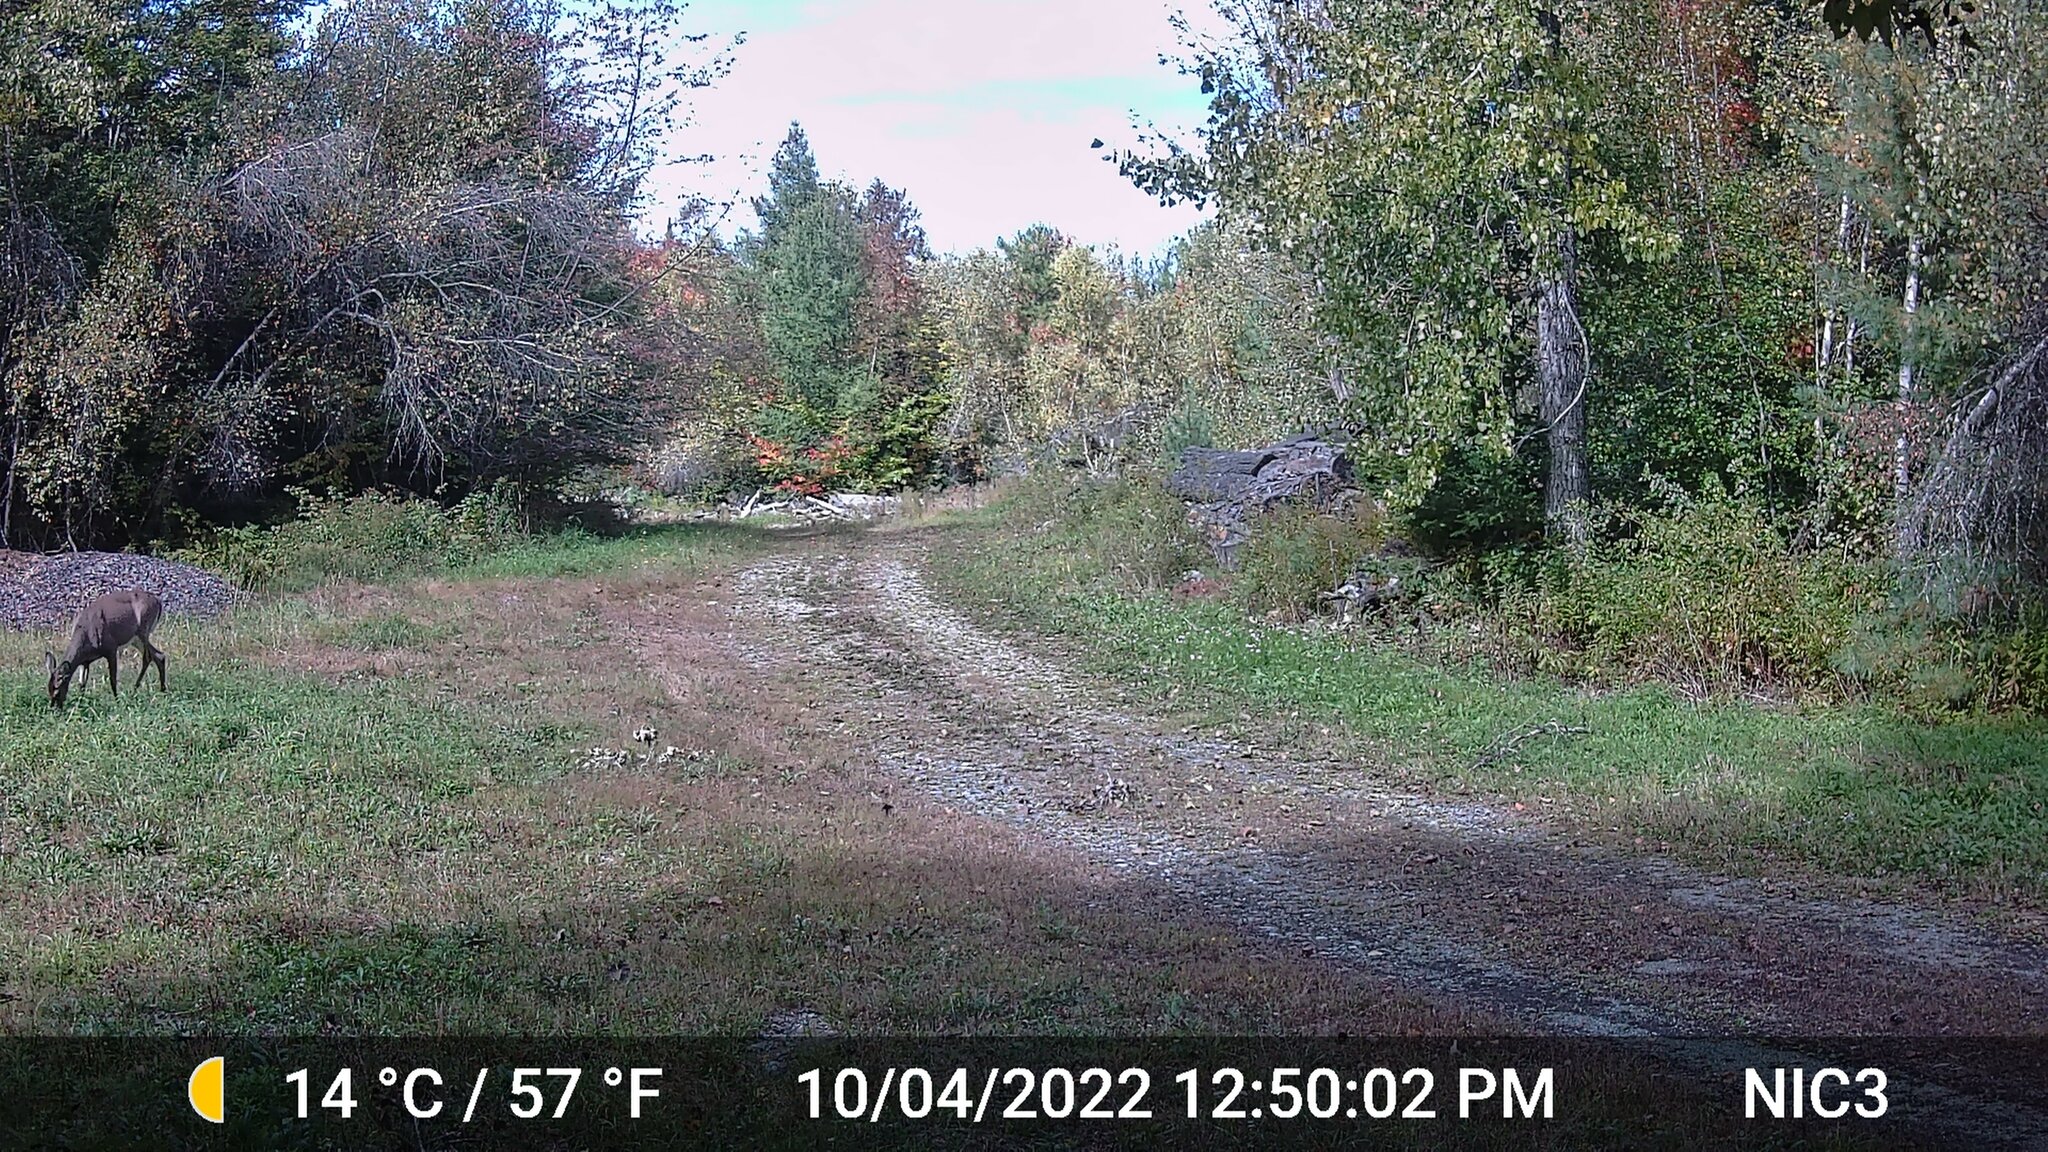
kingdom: Animalia
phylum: Chordata
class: Mammalia
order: Artiodactyla
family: Cervidae
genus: Odocoileus
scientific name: Odocoileus virginianus
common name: White-tailed deer
